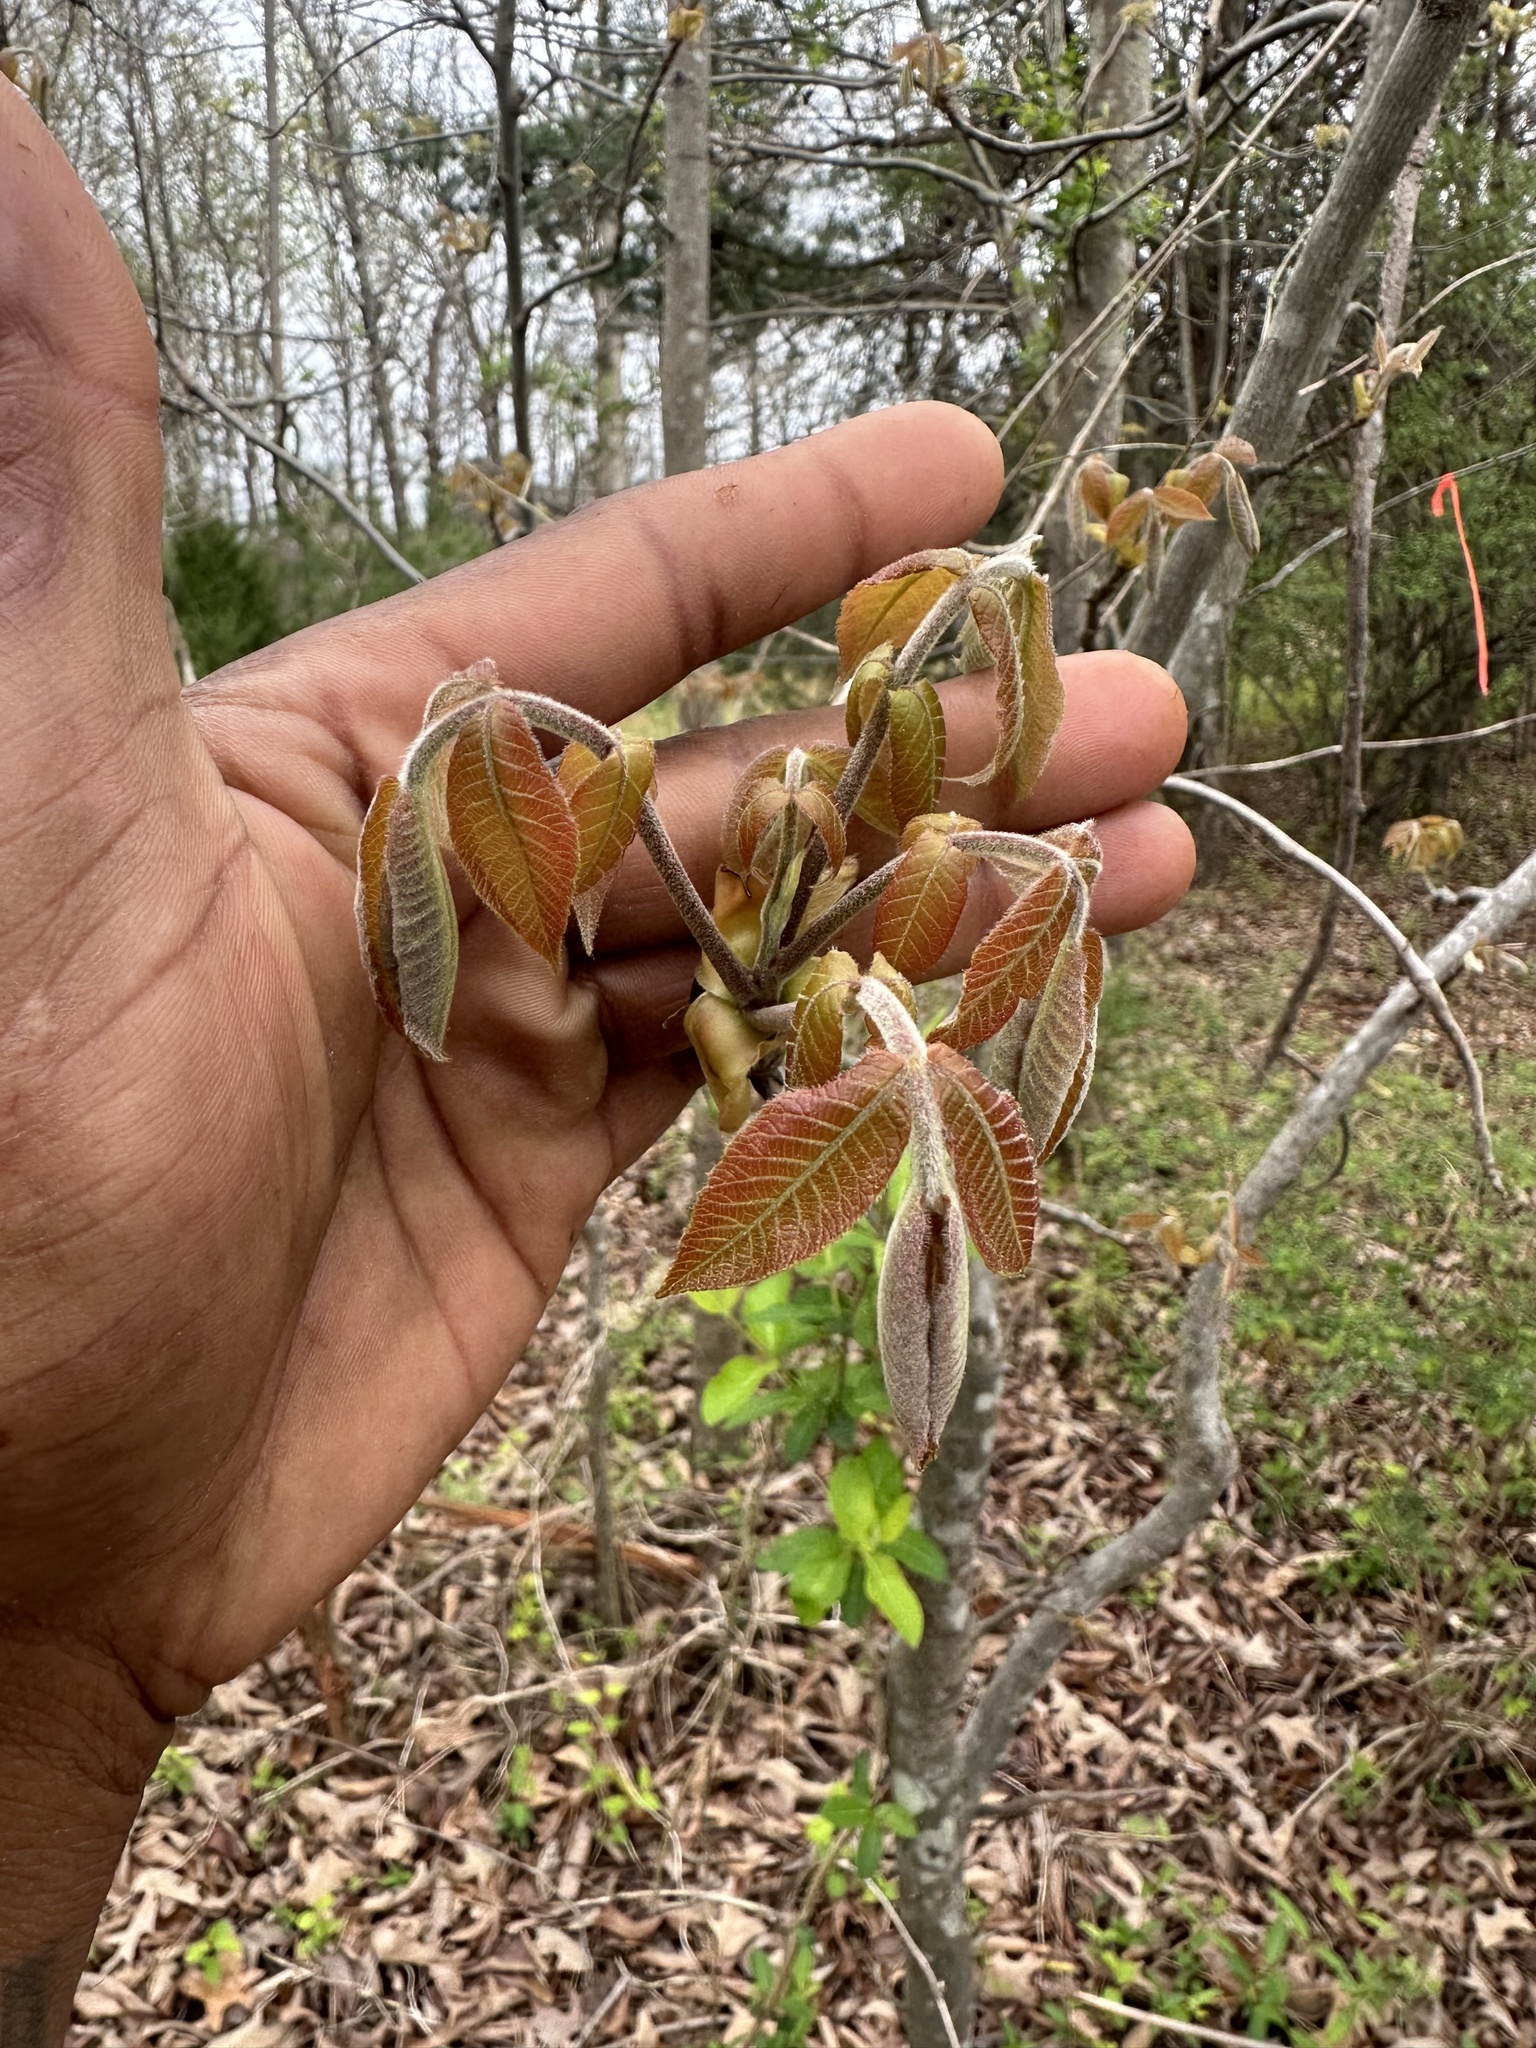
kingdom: Plantae
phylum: Tracheophyta
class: Magnoliopsida
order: Fagales
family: Juglandaceae
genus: Carya
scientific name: Carya alba
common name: Mockernut hickory
